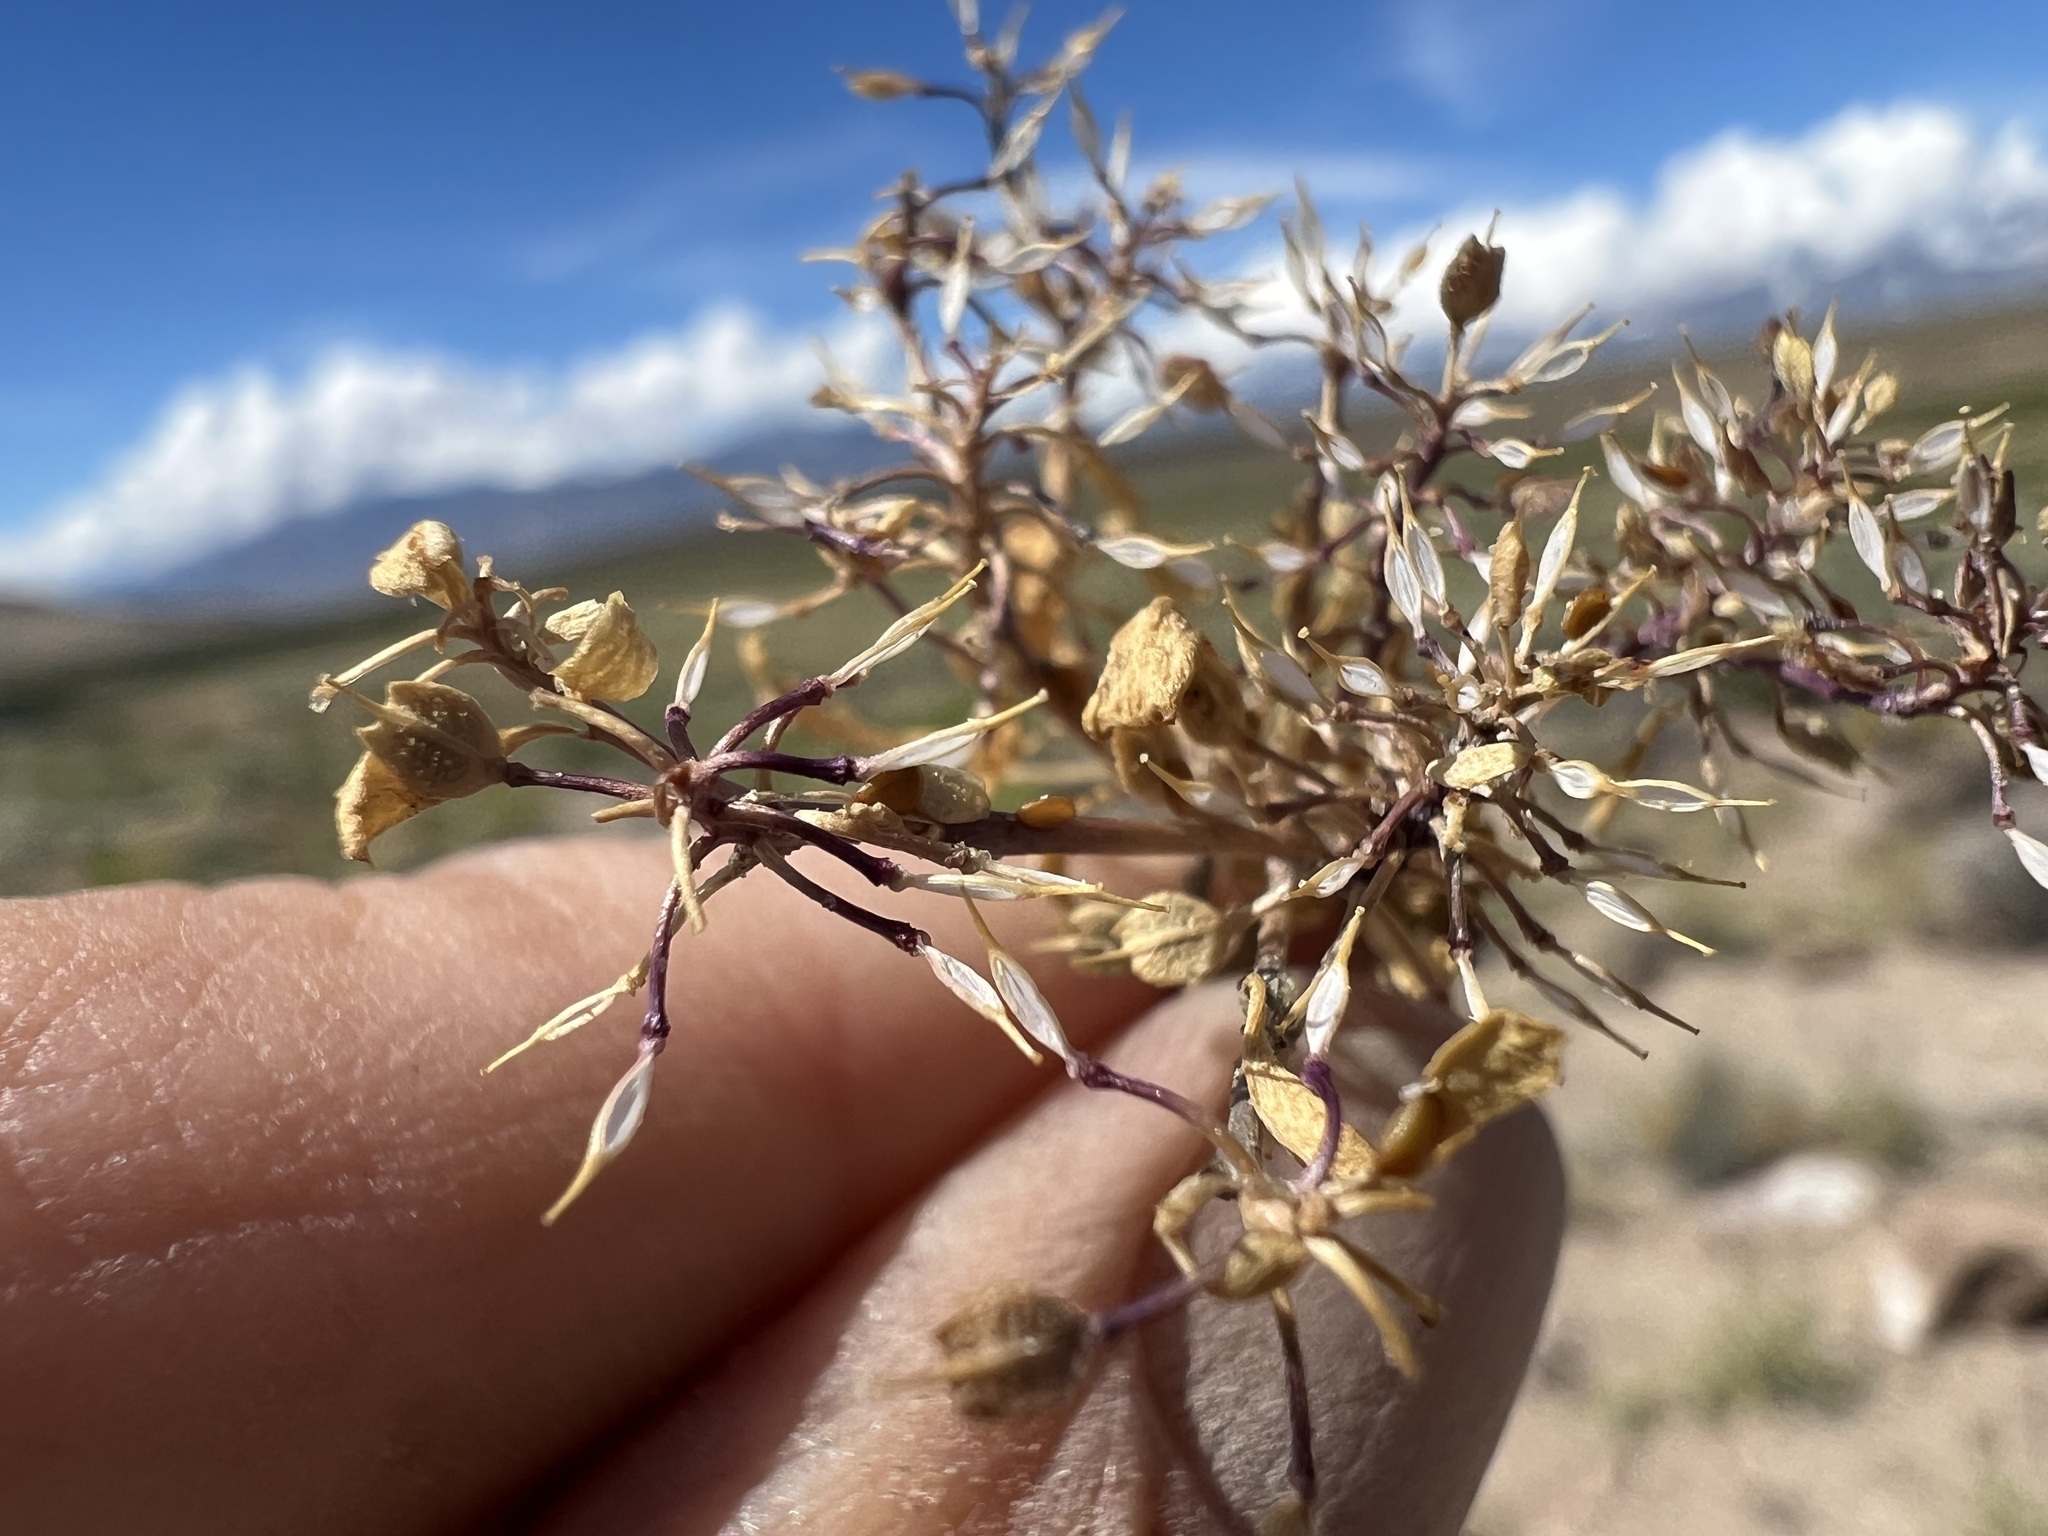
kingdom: Plantae
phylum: Tracheophyta
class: Magnoliopsida
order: Brassicales
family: Brassicaceae
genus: Lepidium
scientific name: Lepidium flavum
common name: Yellow pepperwort
